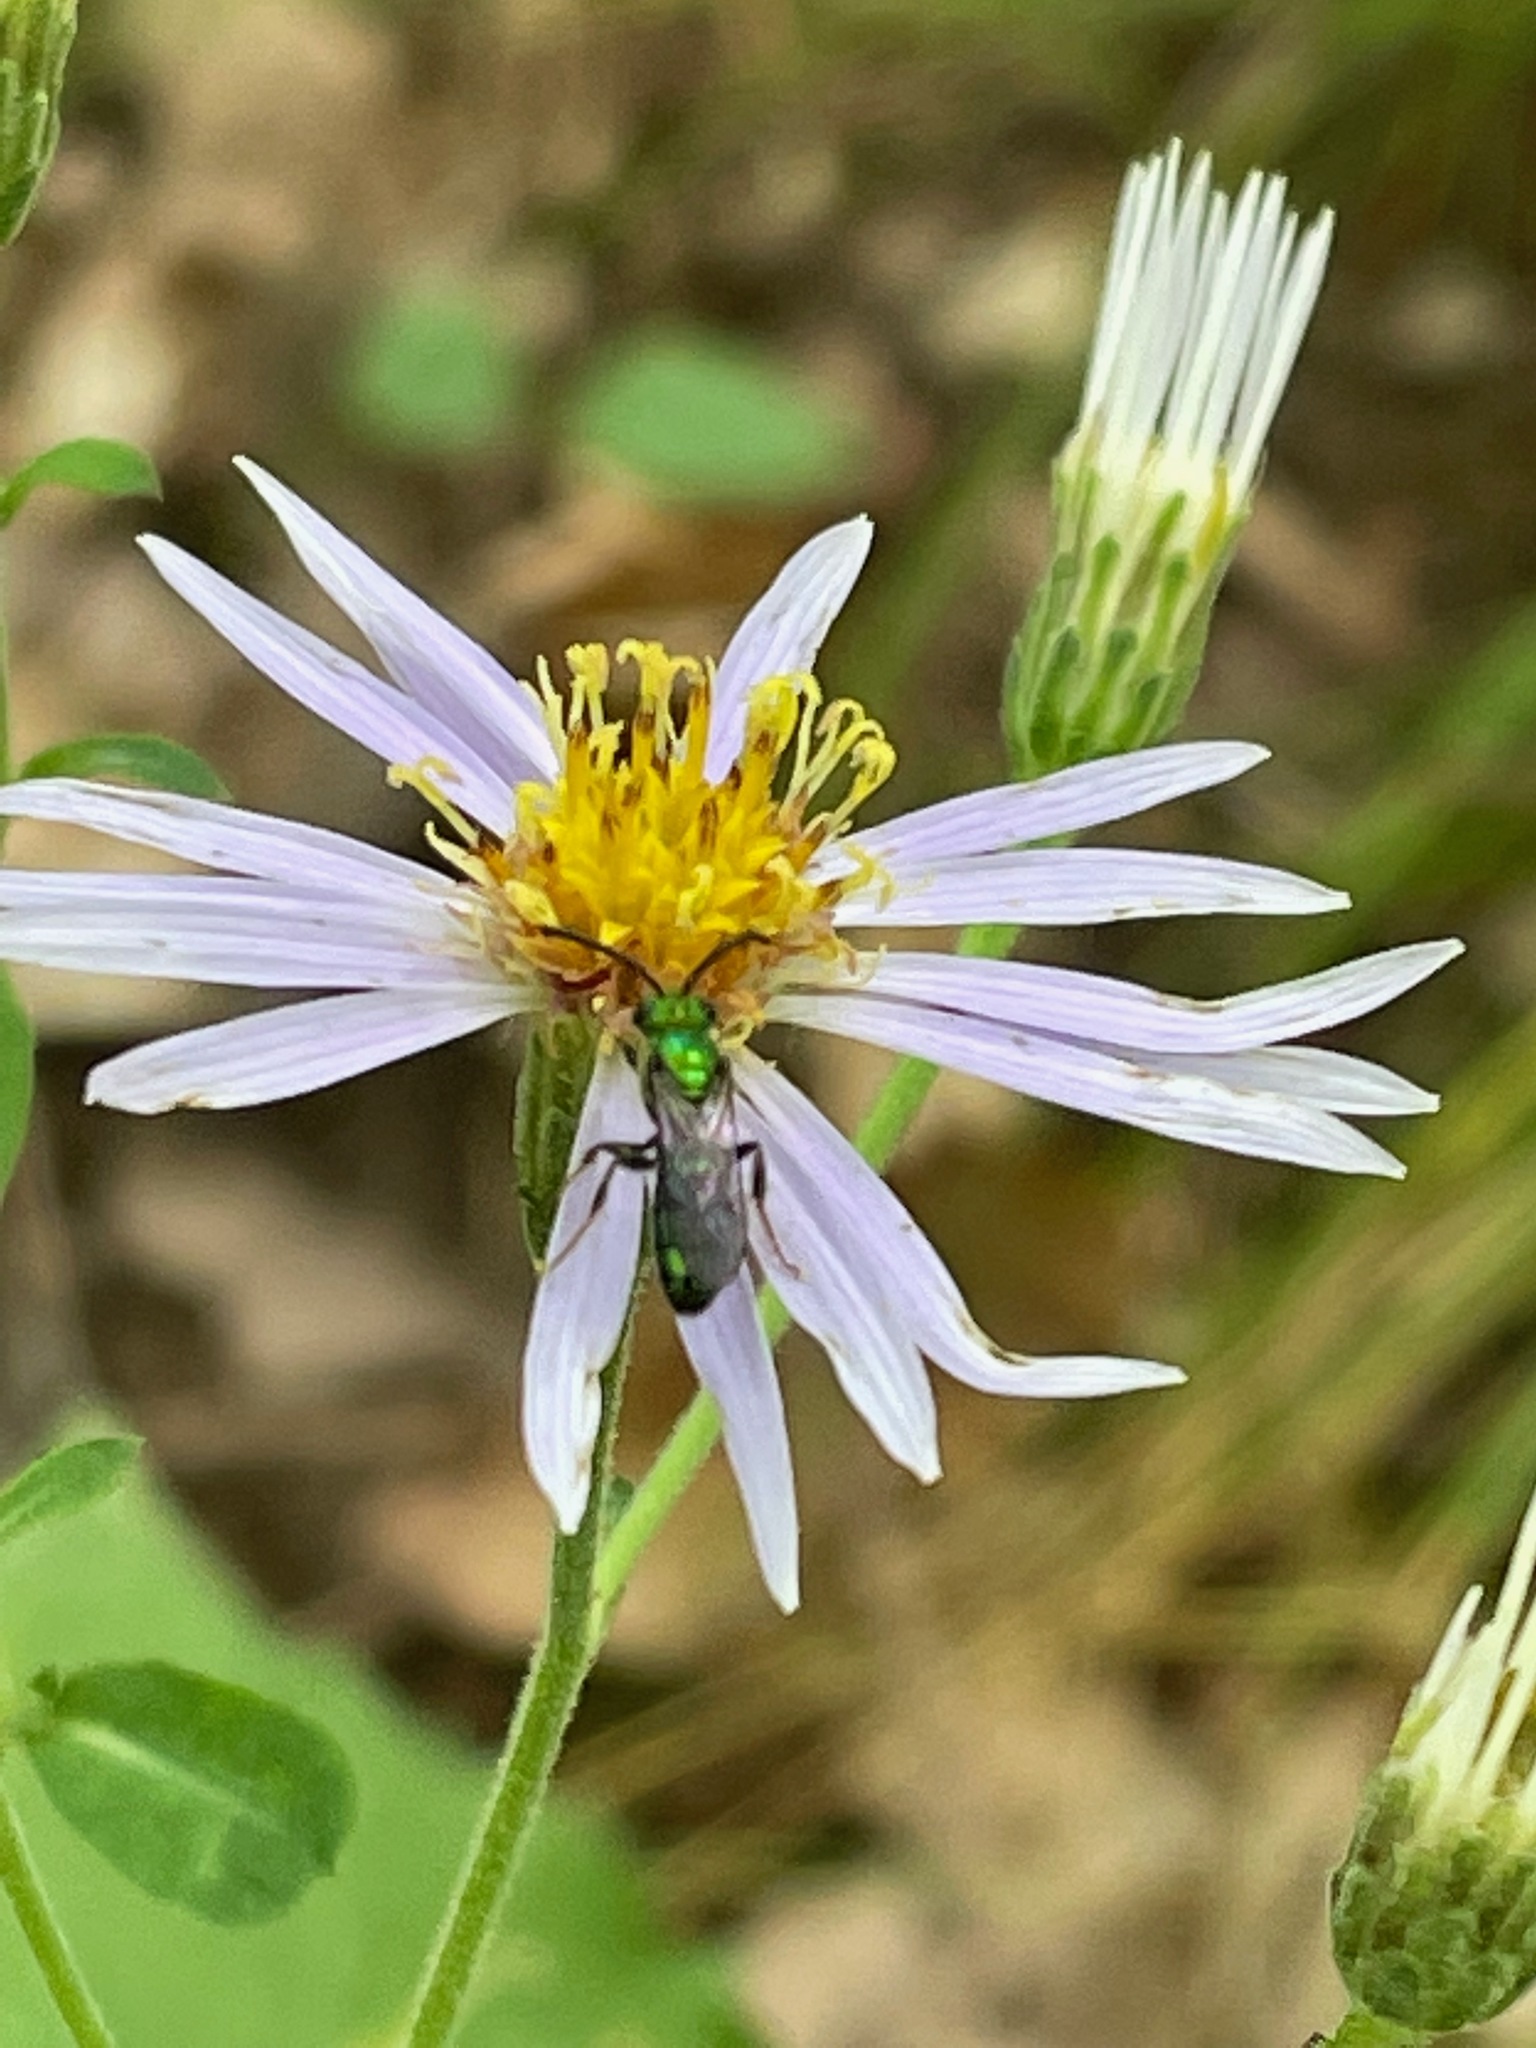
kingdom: Plantae
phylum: Tracheophyta
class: Magnoliopsida
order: Asterales
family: Asteraceae
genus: Eurybia
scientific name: Eurybia macrophylla
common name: Big-leaved aster
